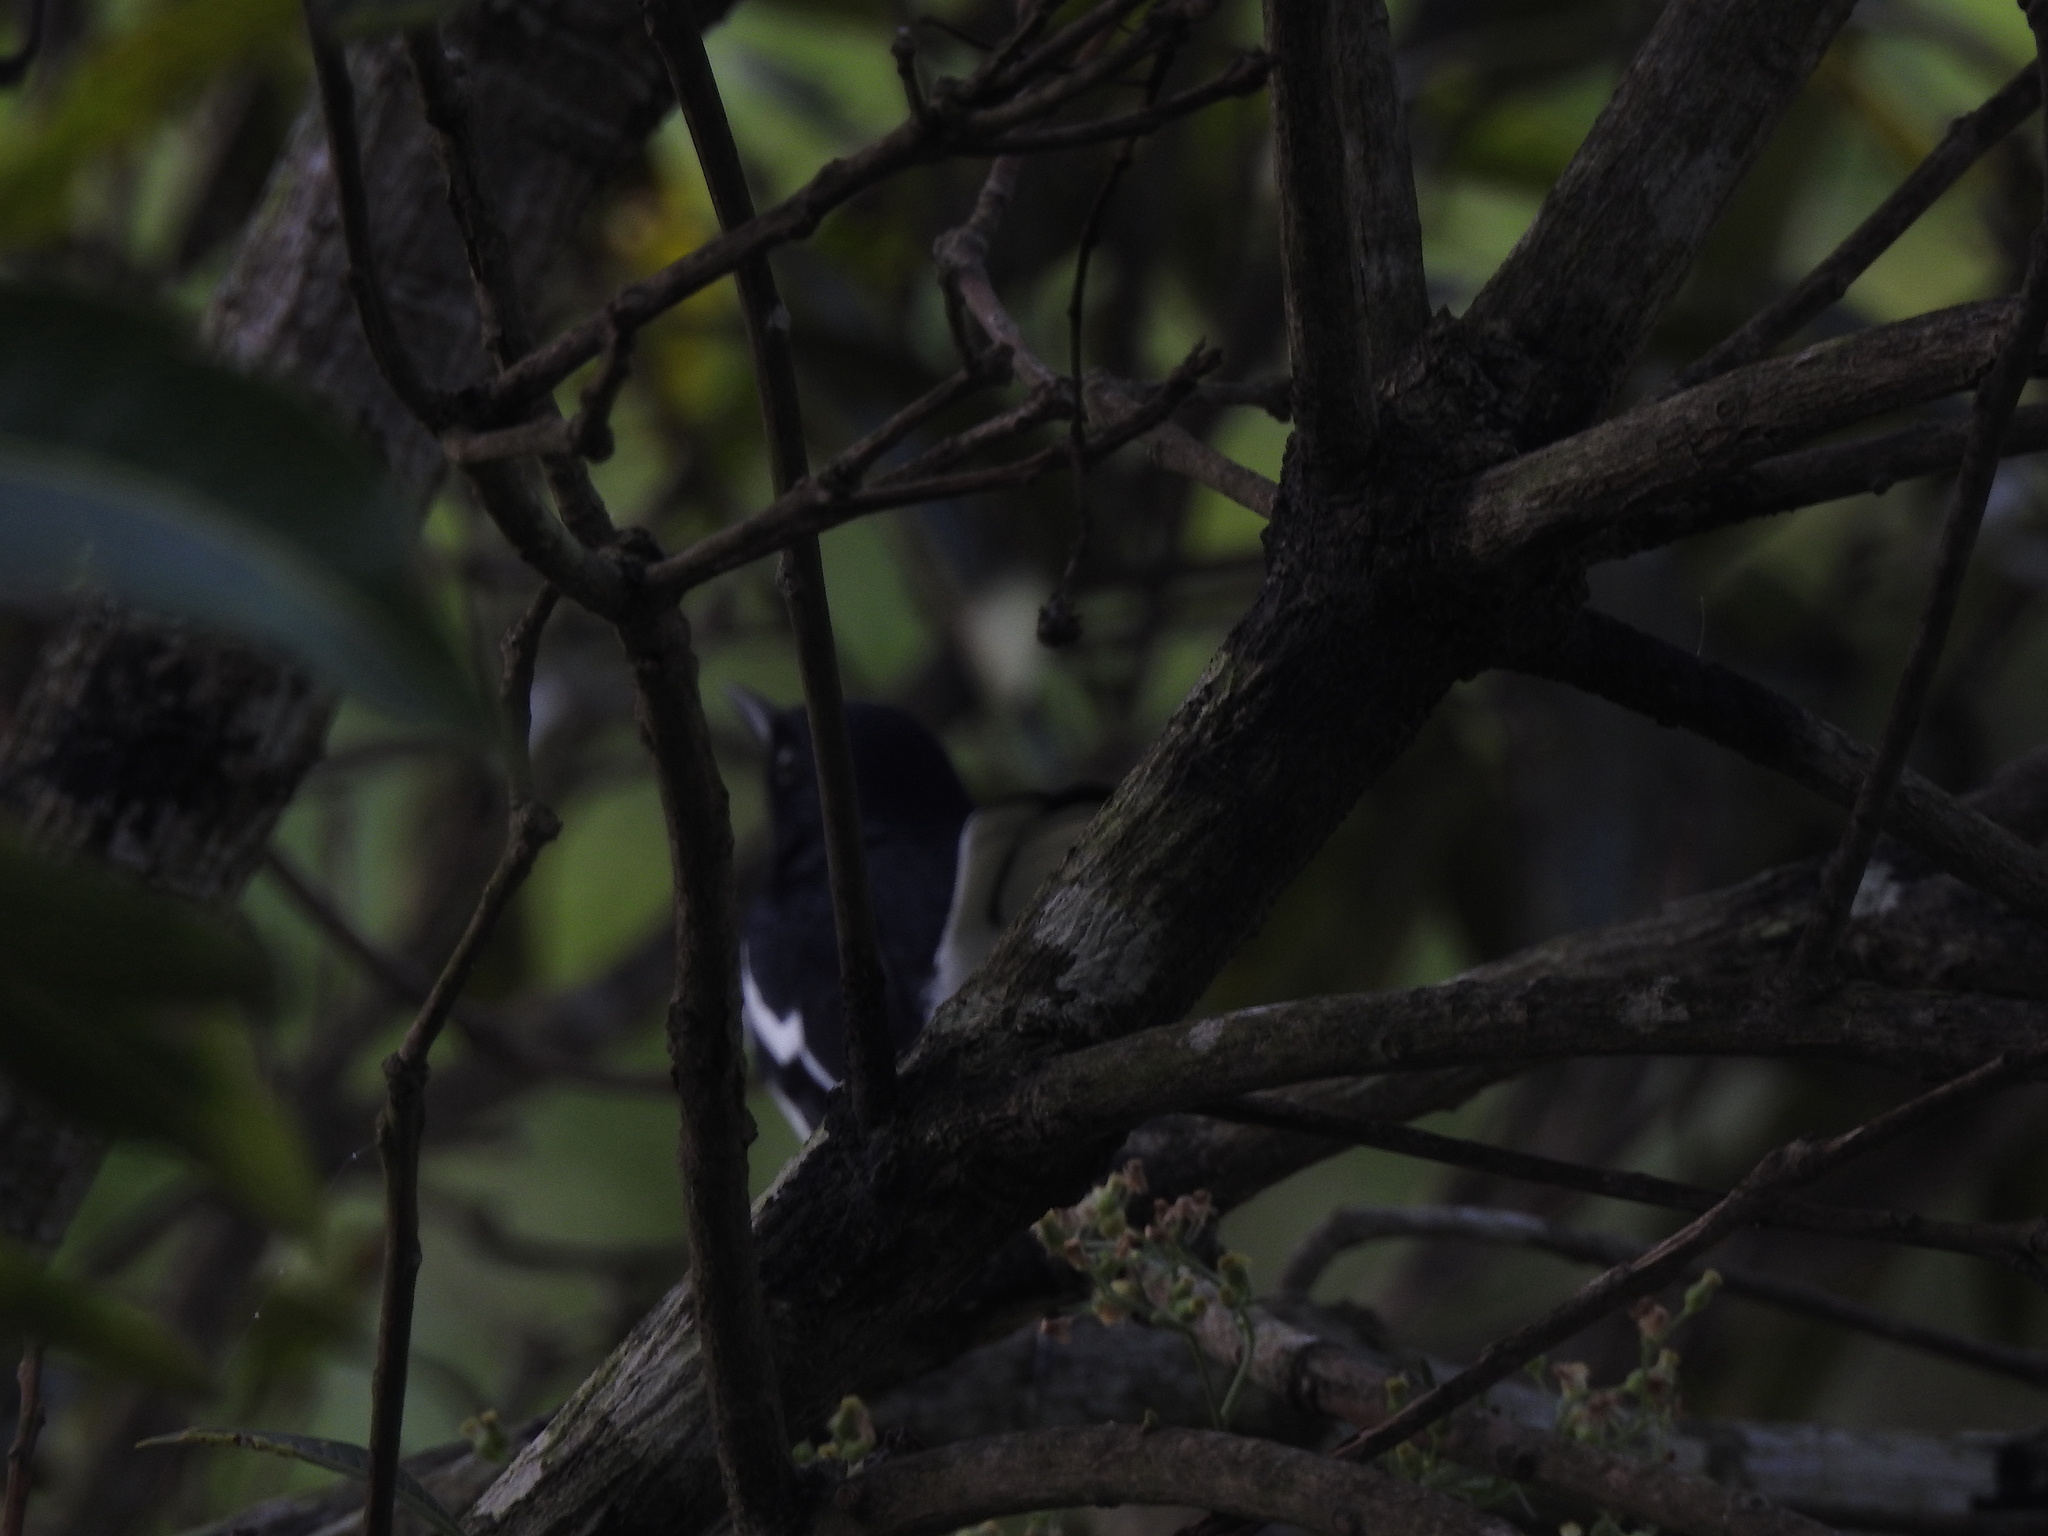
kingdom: Animalia
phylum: Chordata
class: Aves
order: Passeriformes
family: Muscicapidae
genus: Copsychus
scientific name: Copsychus saularis
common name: Oriental magpie-robin
